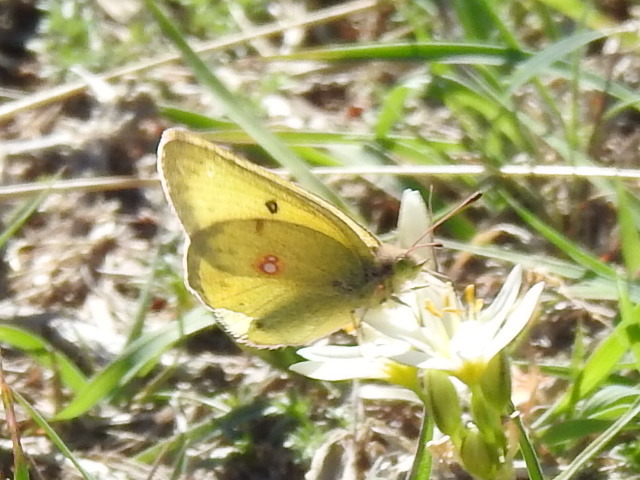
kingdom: Animalia
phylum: Arthropoda
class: Insecta
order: Lepidoptera
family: Pieridae
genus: Colias
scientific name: Colias eurytheme
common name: Alfalfa butterfly
